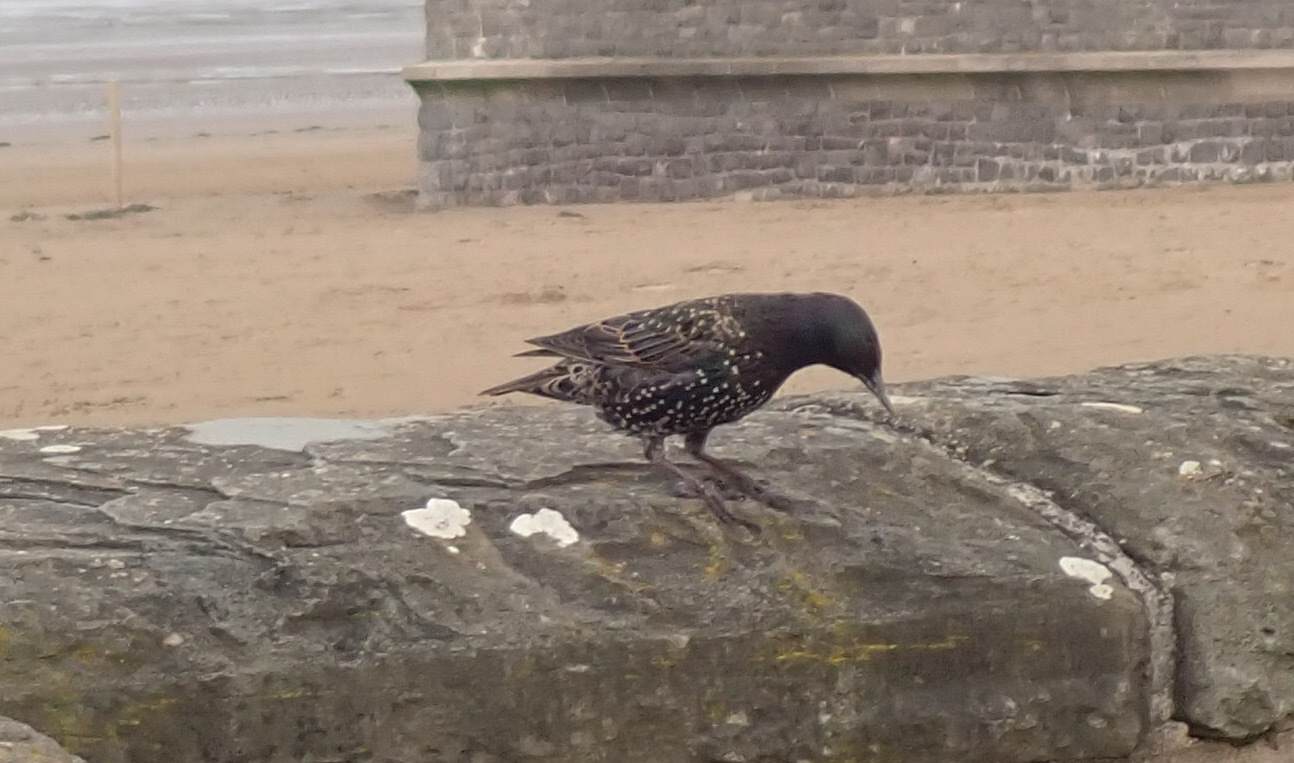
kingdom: Animalia
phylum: Chordata
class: Aves
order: Passeriformes
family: Sturnidae
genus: Sturnus
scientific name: Sturnus vulgaris
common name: Common starling
